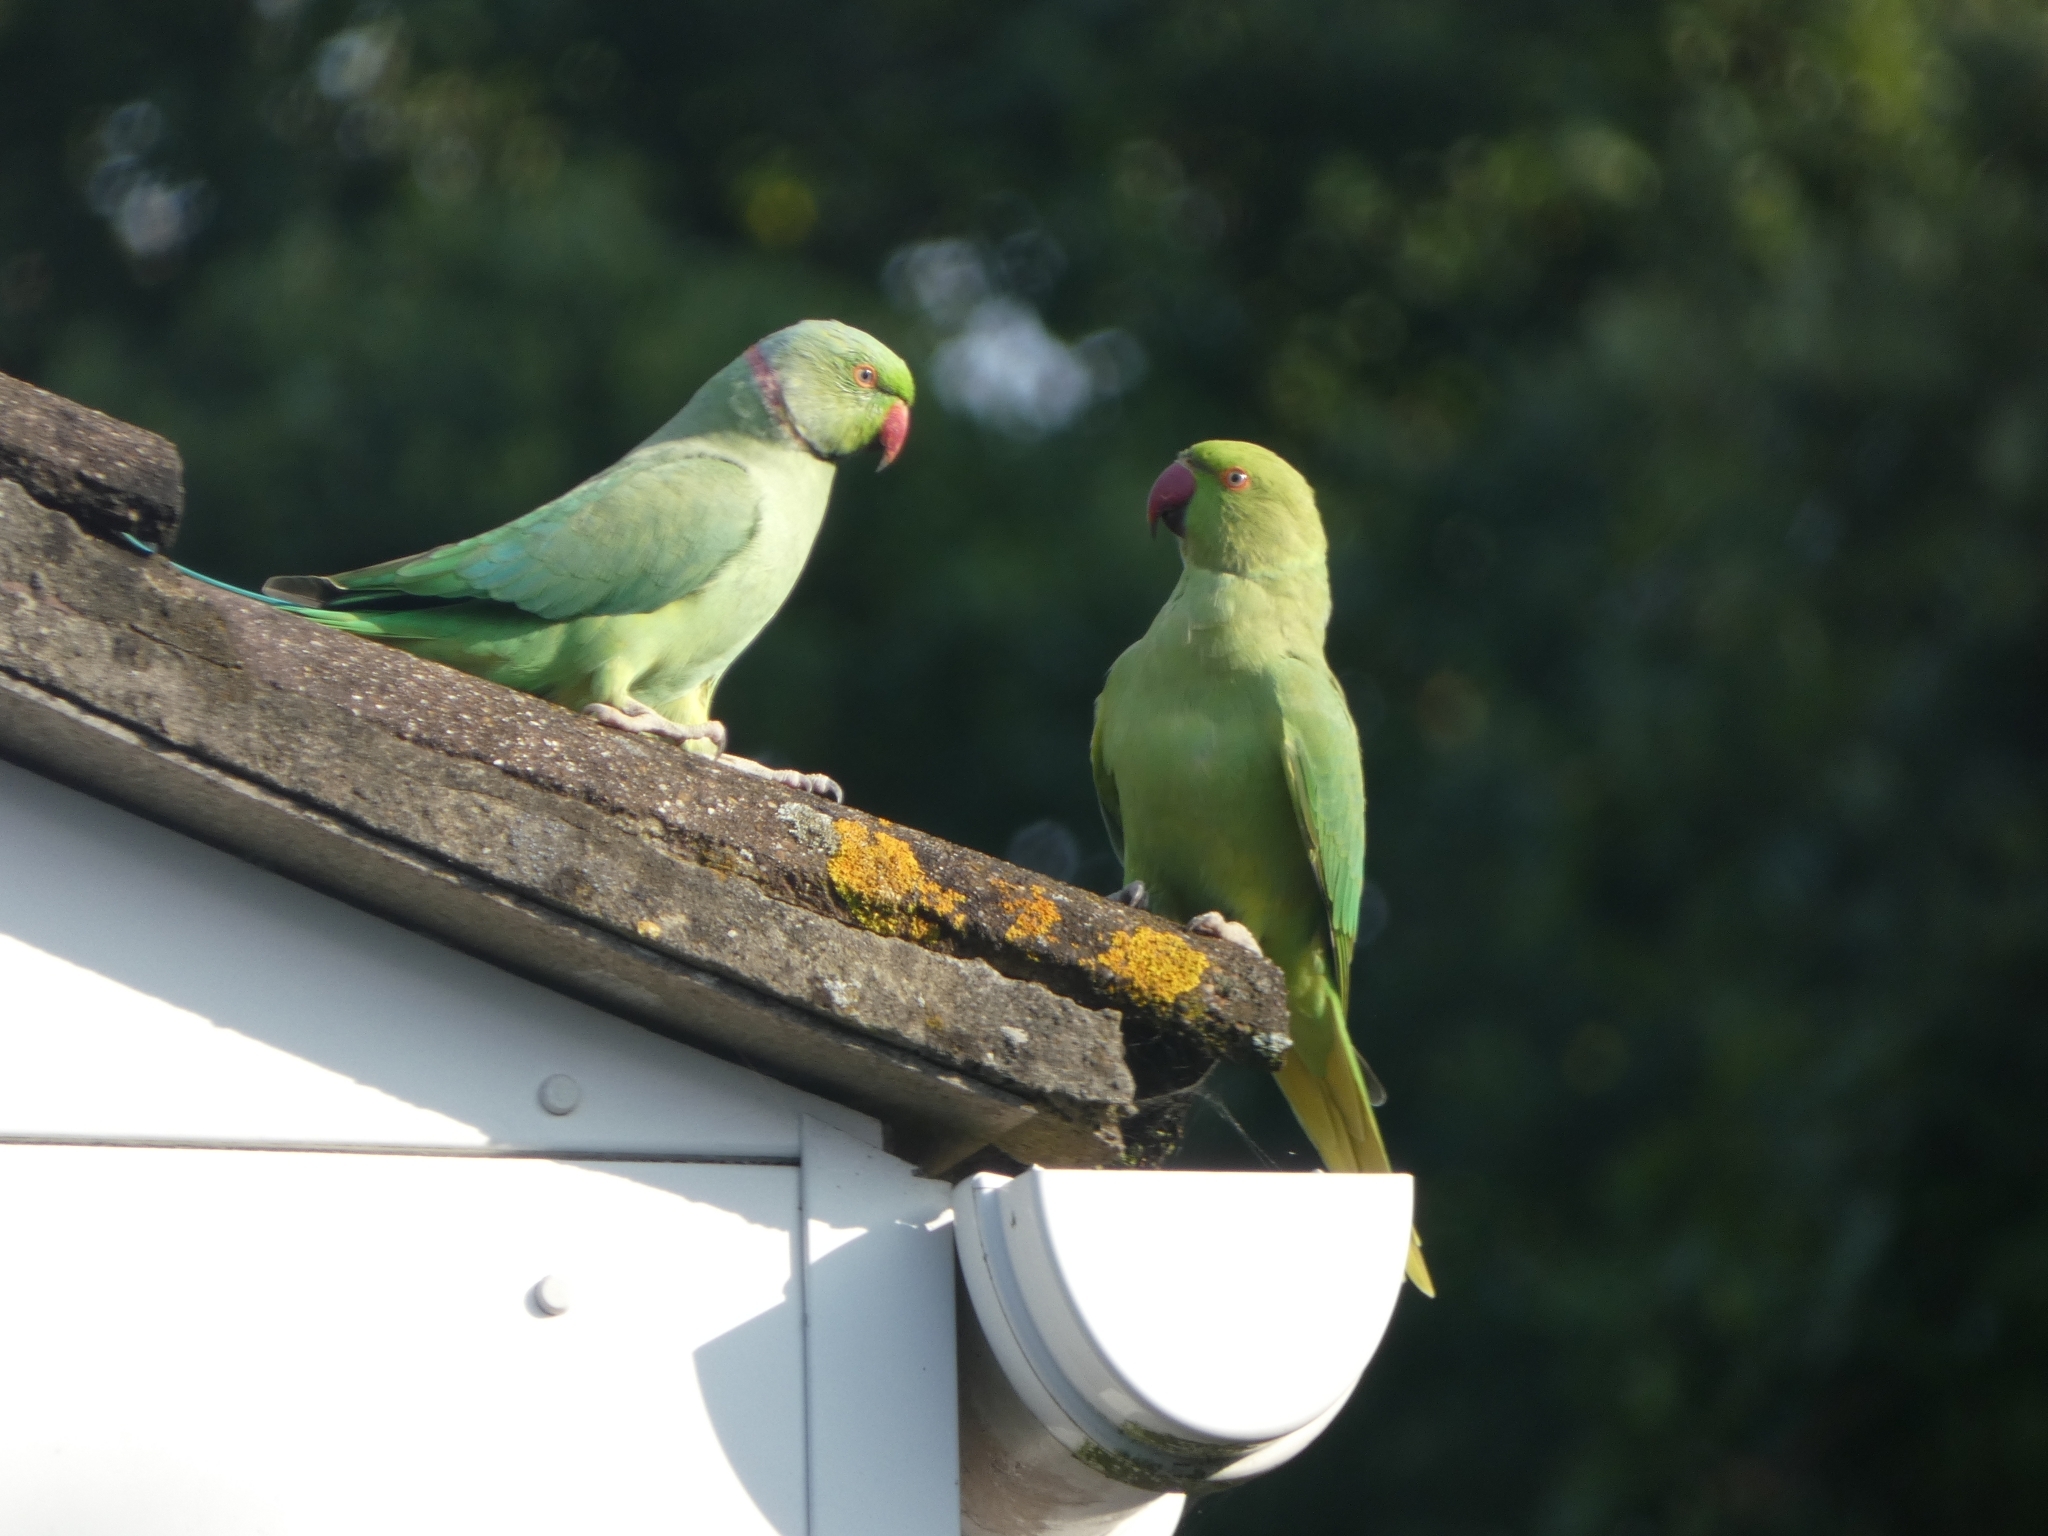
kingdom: Animalia
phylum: Chordata
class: Aves
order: Psittaciformes
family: Psittacidae
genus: Psittacula
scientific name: Psittacula krameri
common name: Rose-ringed parakeet
